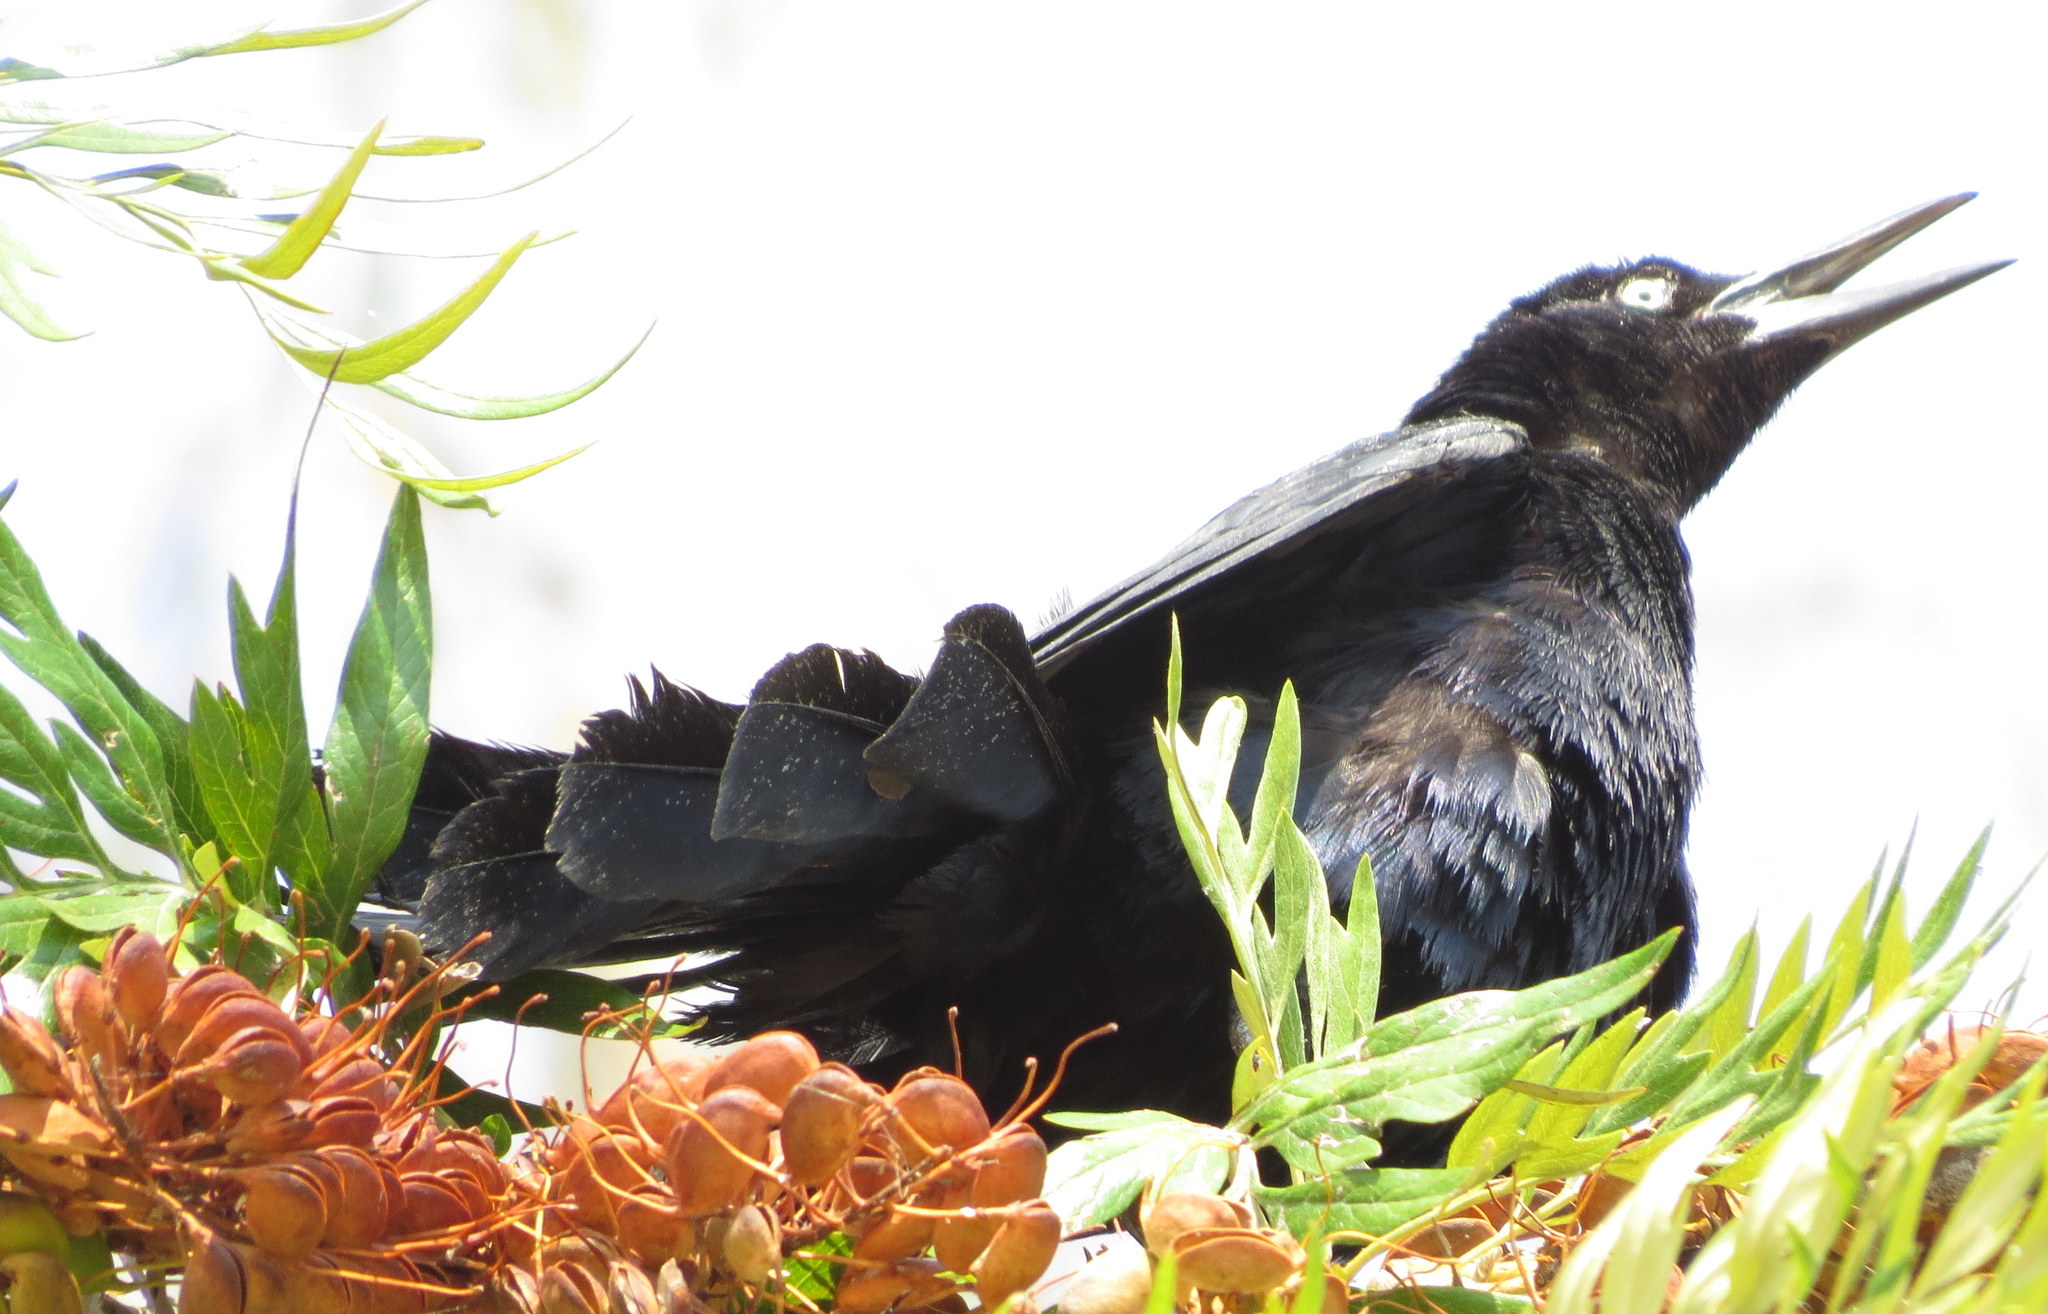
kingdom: Animalia
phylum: Chordata
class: Aves
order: Passeriformes
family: Icteridae
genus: Quiscalus
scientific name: Quiscalus mexicanus
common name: Great-tailed grackle
